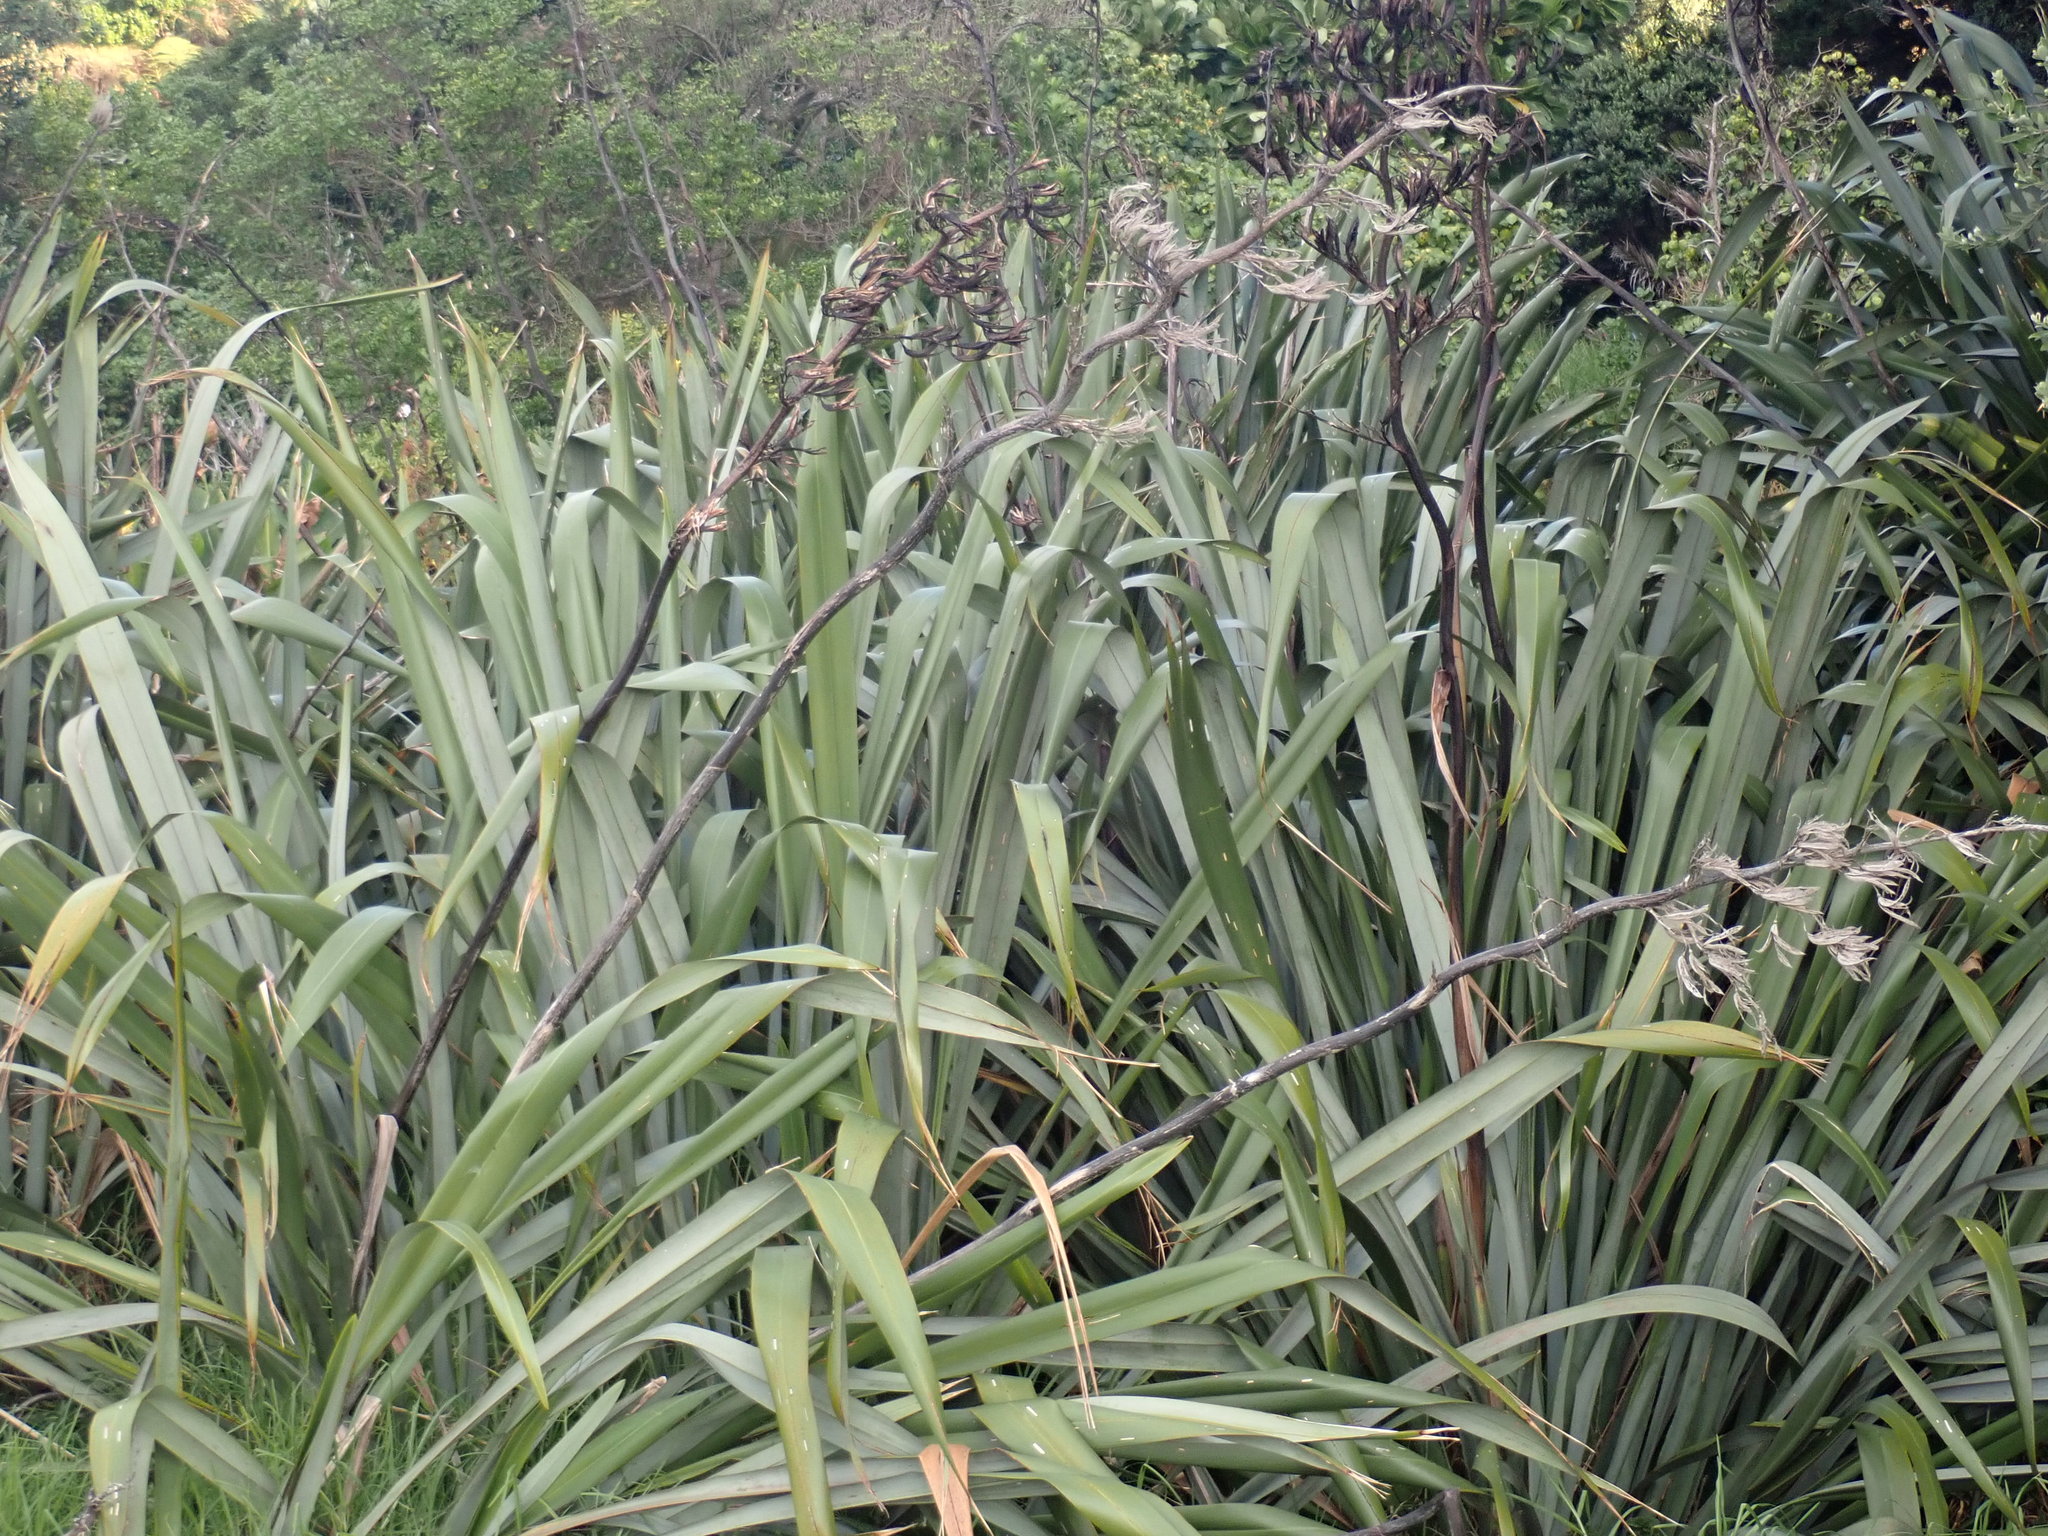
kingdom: Plantae
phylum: Tracheophyta
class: Liliopsida
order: Asparagales
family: Asphodelaceae
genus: Phormium
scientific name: Phormium tenax
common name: New zealand flax
